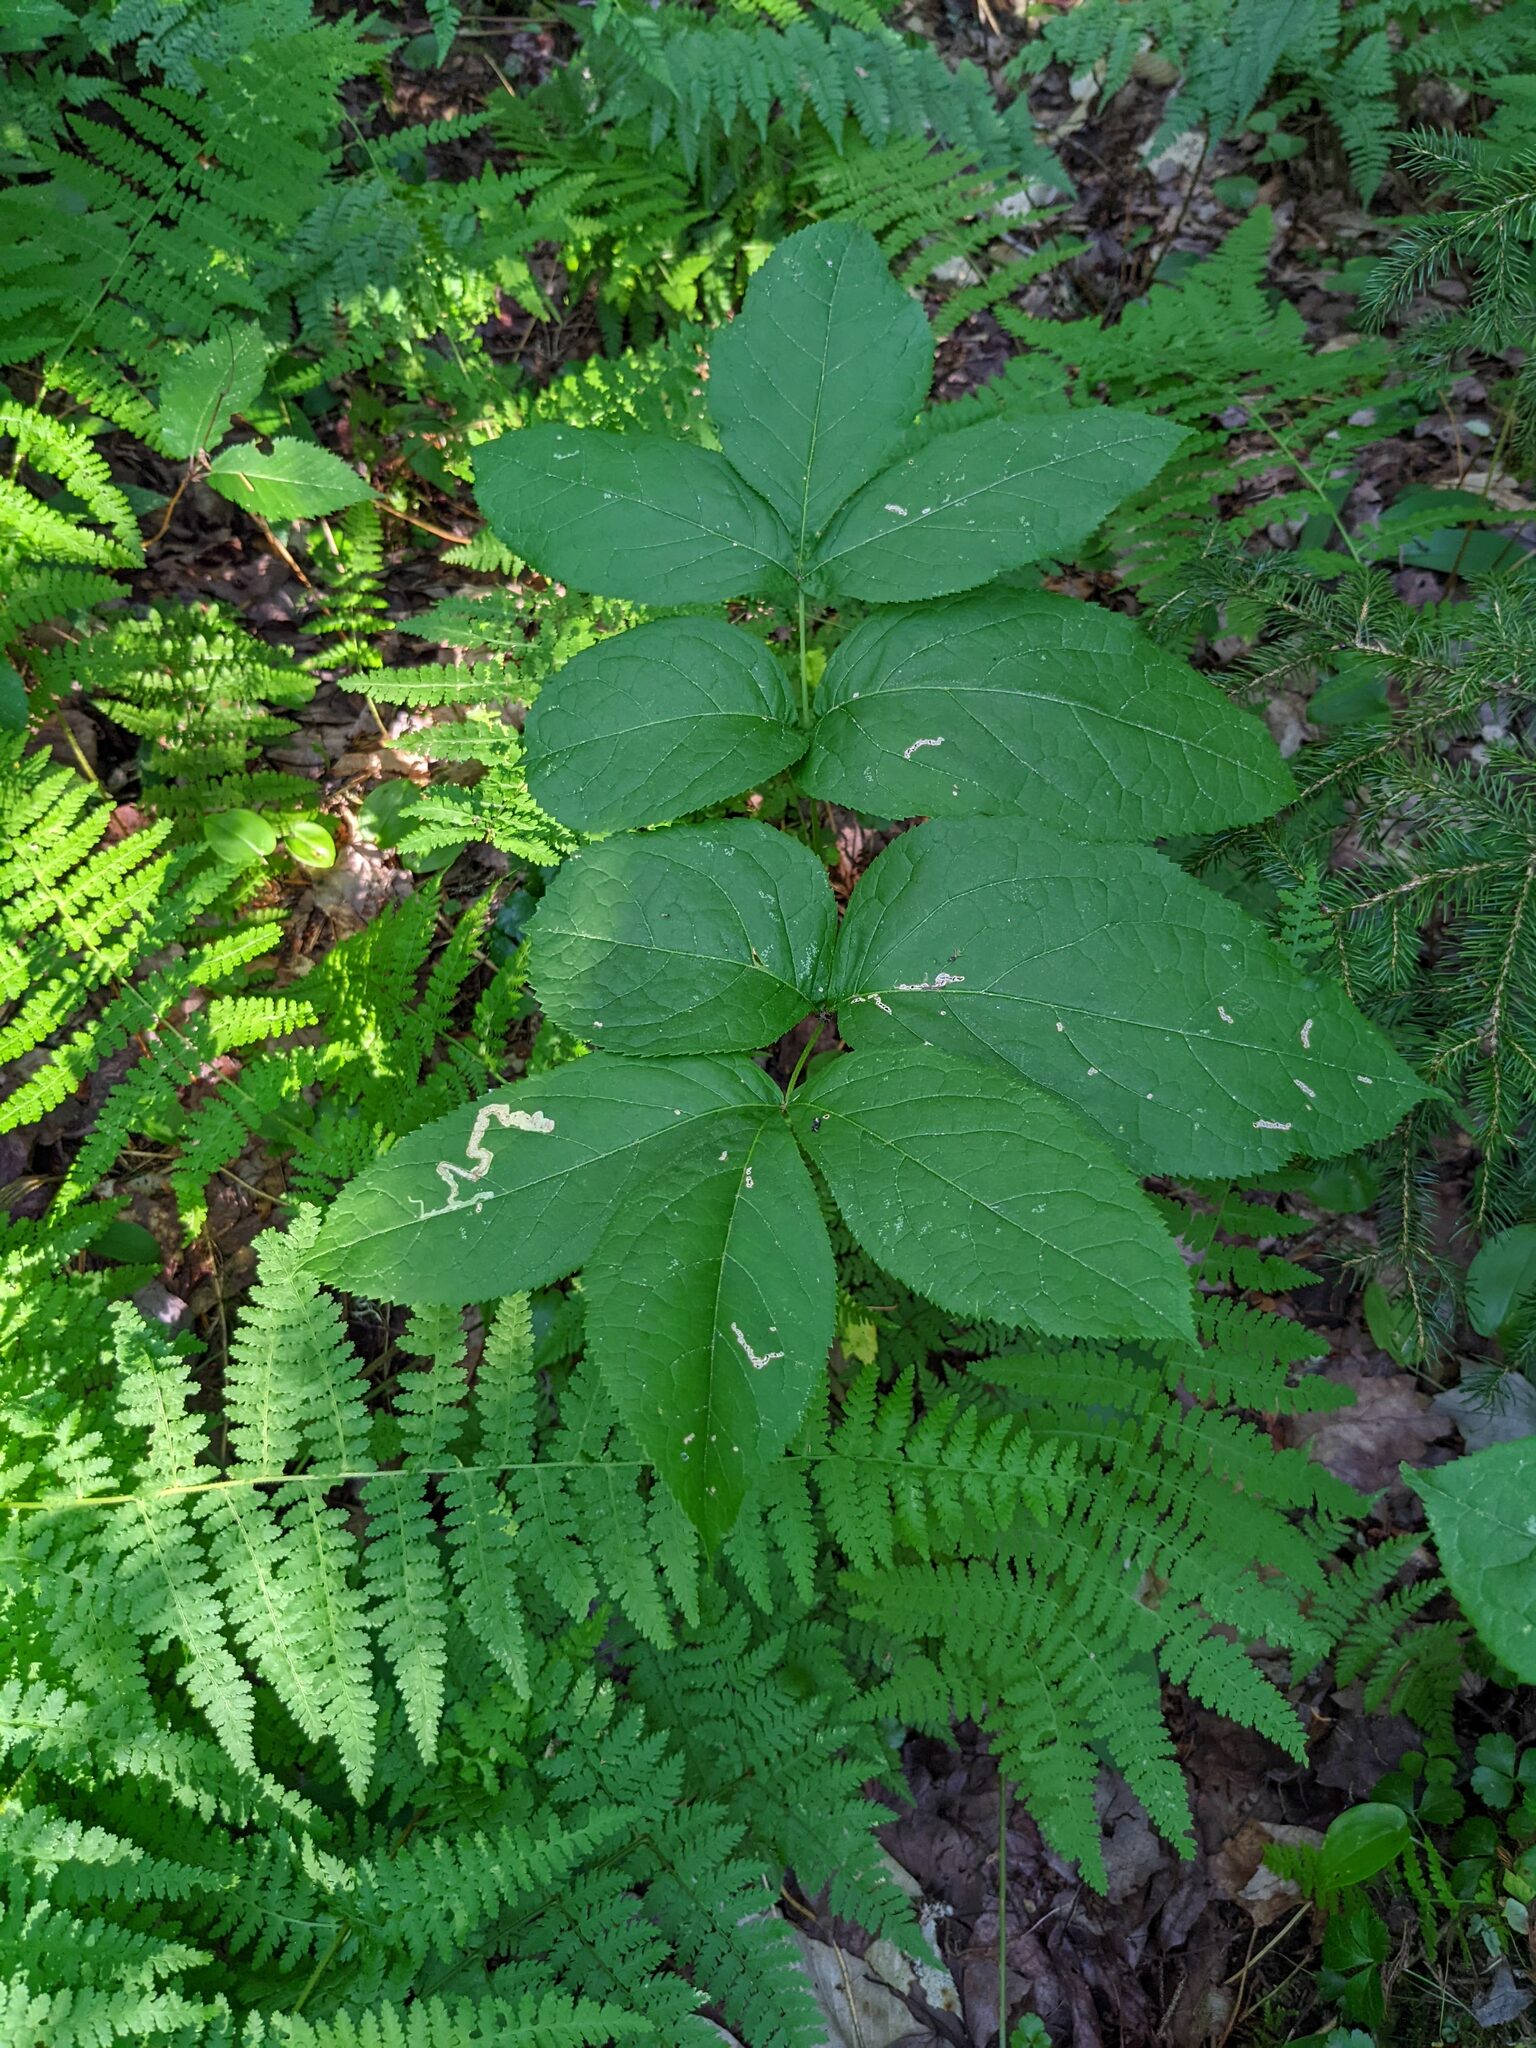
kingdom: Plantae
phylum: Tracheophyta
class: Magnoliopsida
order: Apiales
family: Araliaceae
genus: Aralia
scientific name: Aralia nudicaulis
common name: Wild sarsaparilla
